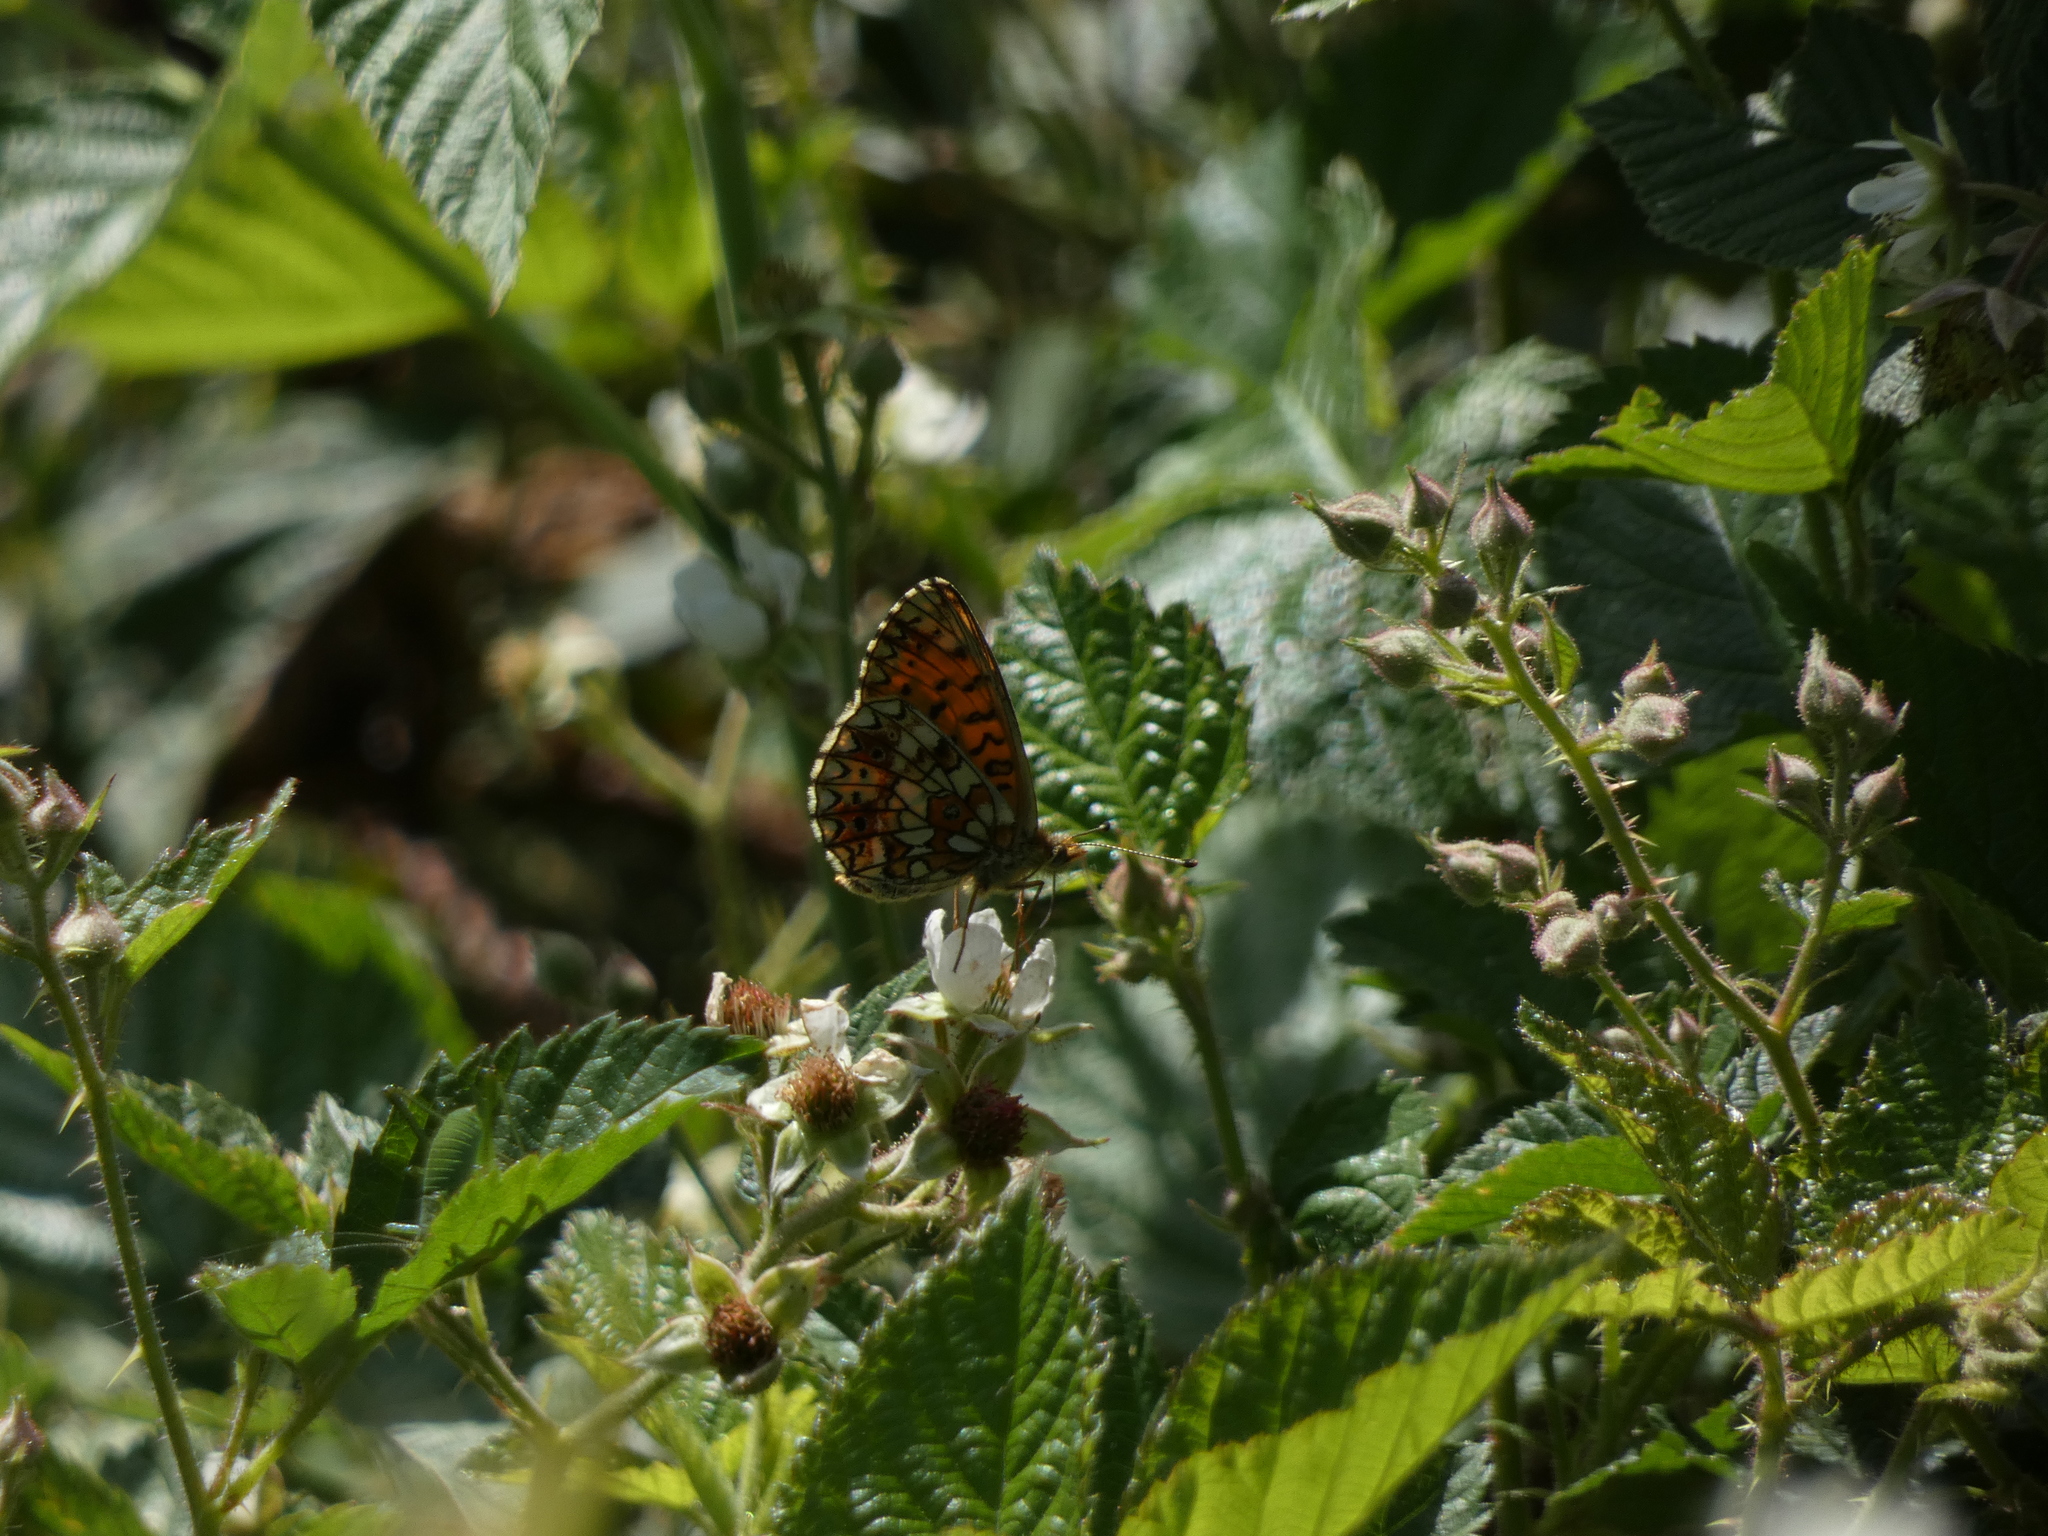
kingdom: Animalia
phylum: Arthropoda
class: Insecta
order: Lepidoptera
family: Nymphalidae
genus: Boloria
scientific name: Boloria selene
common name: Small pearl-bordered fritillary
